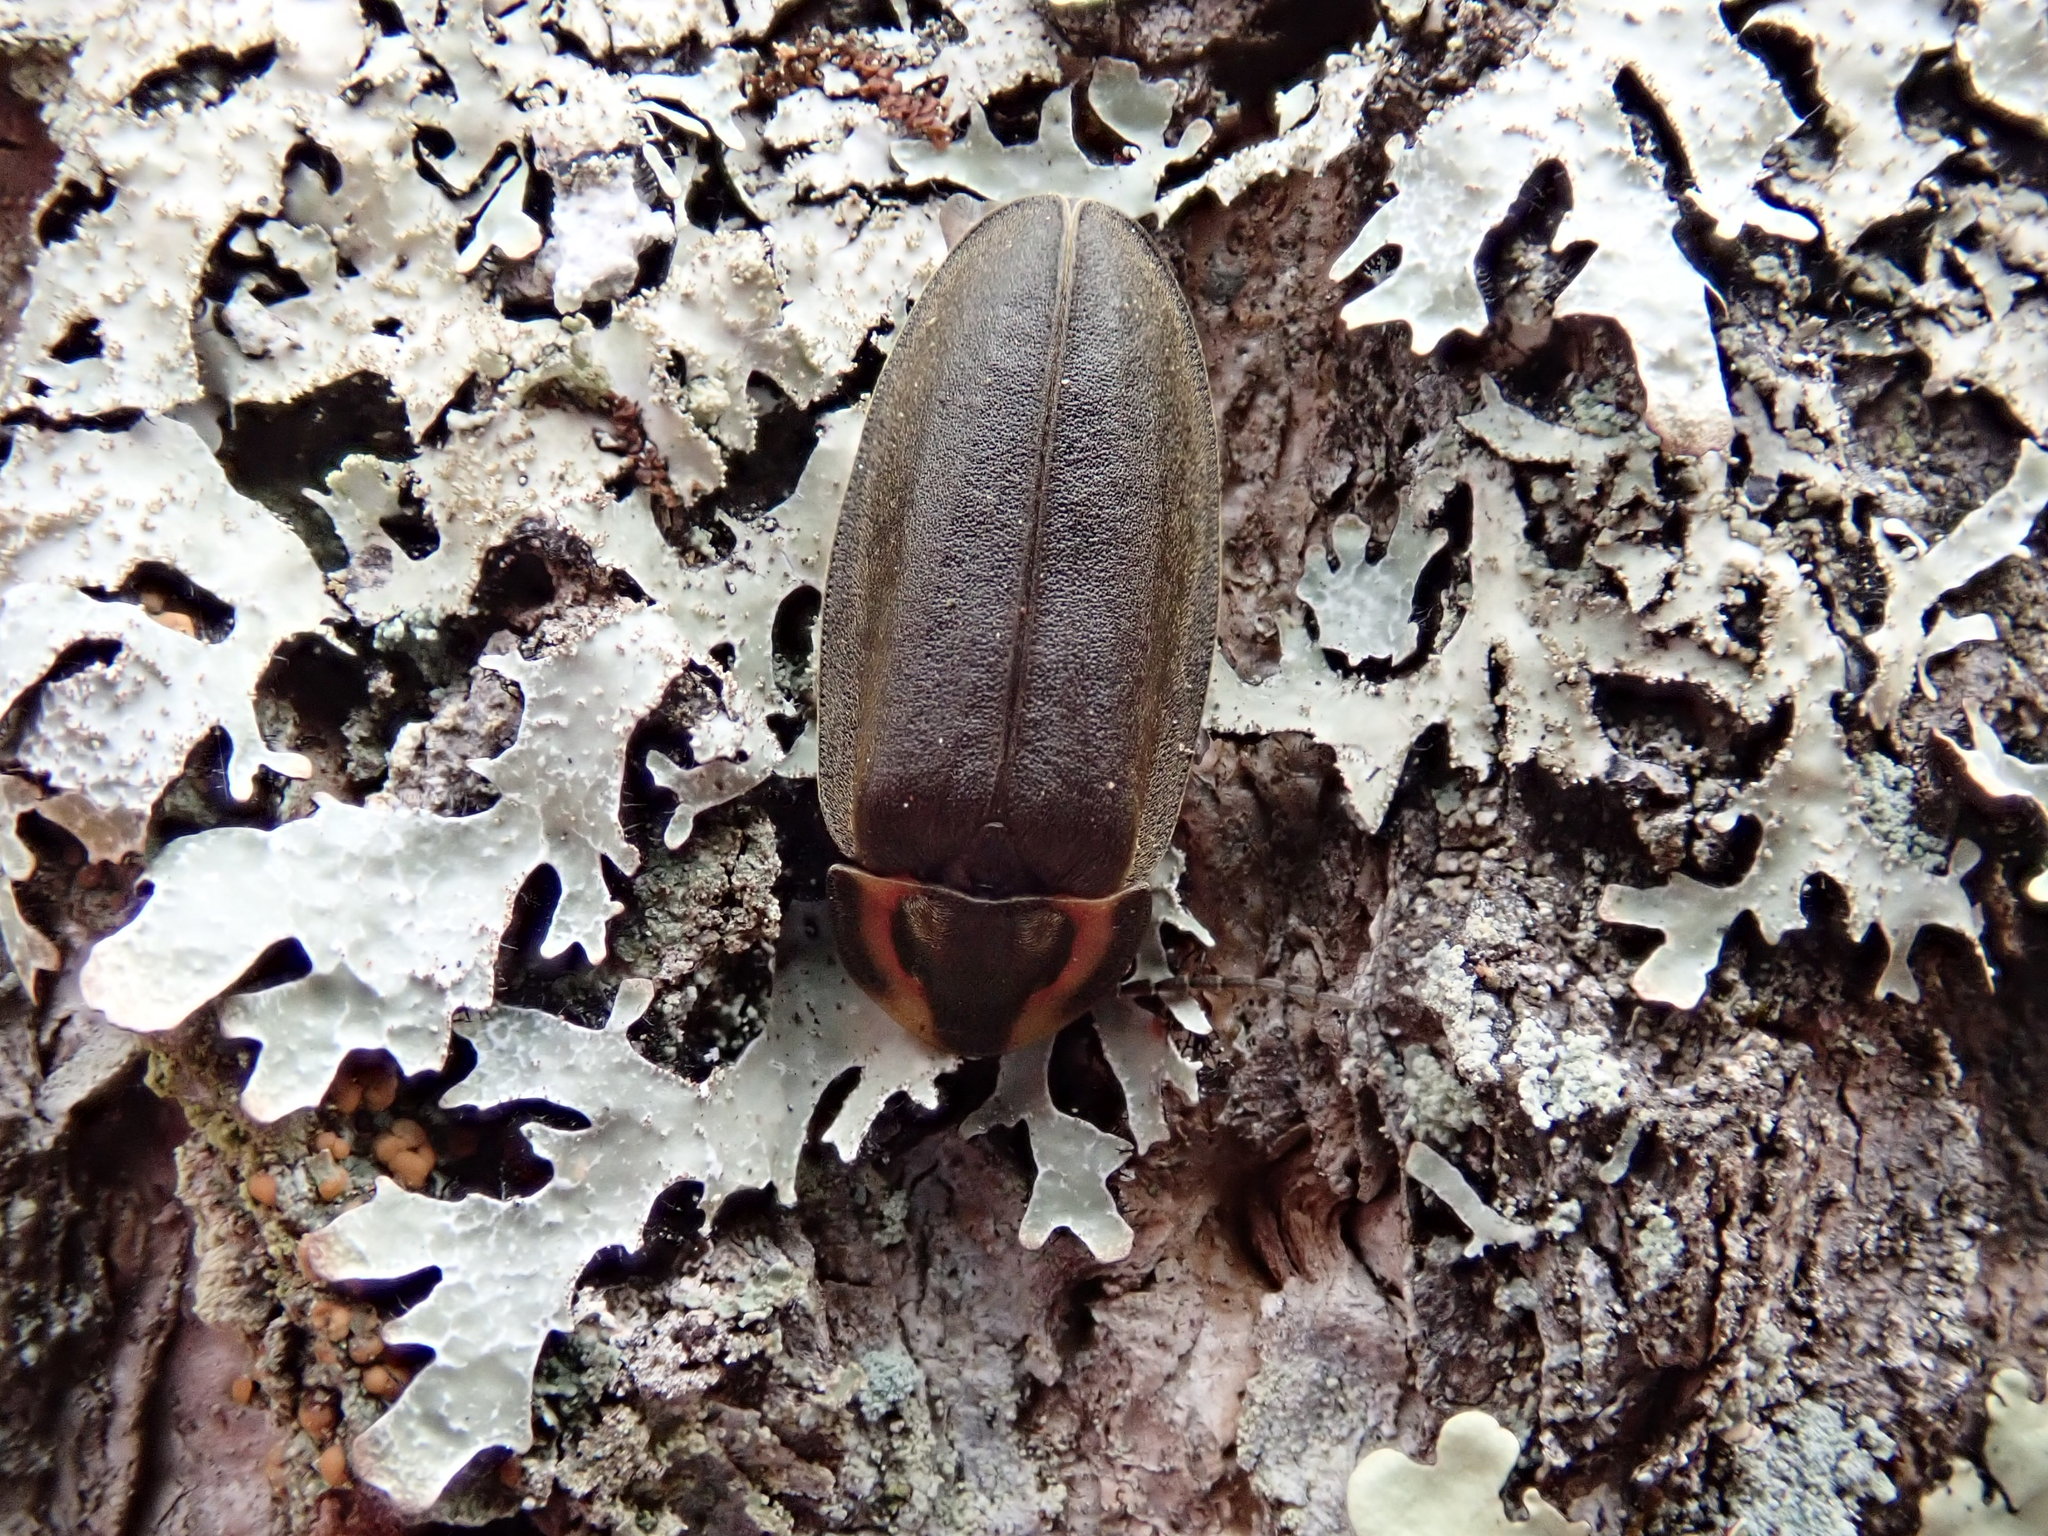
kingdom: Animalia
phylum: Arthropoda
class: Insecta
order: Coleoptera
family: Lampyridae
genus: Photinus
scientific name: Photinus corrusca
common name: Winter firefly
